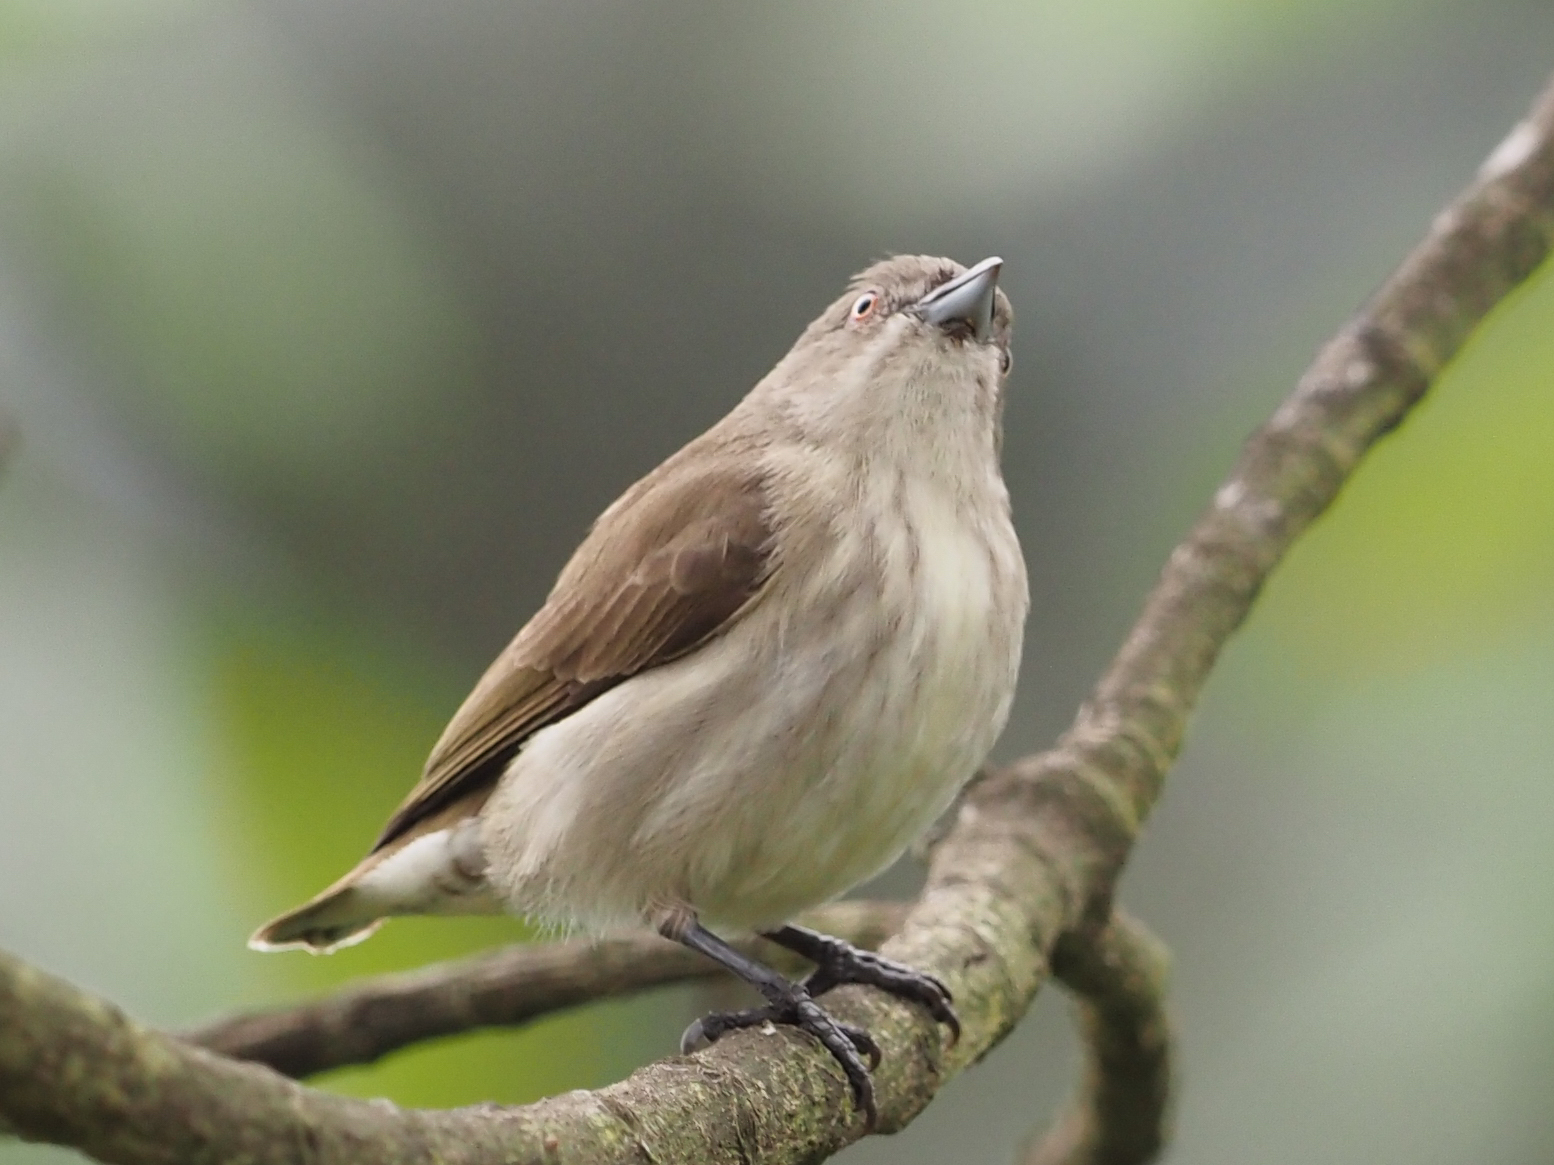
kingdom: Animalia
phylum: Chordata
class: Aves
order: Passeriformes
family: Dicaeidae
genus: Dicaeum
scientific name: Dicaeum agile
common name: Thick-billed flowerpecker
